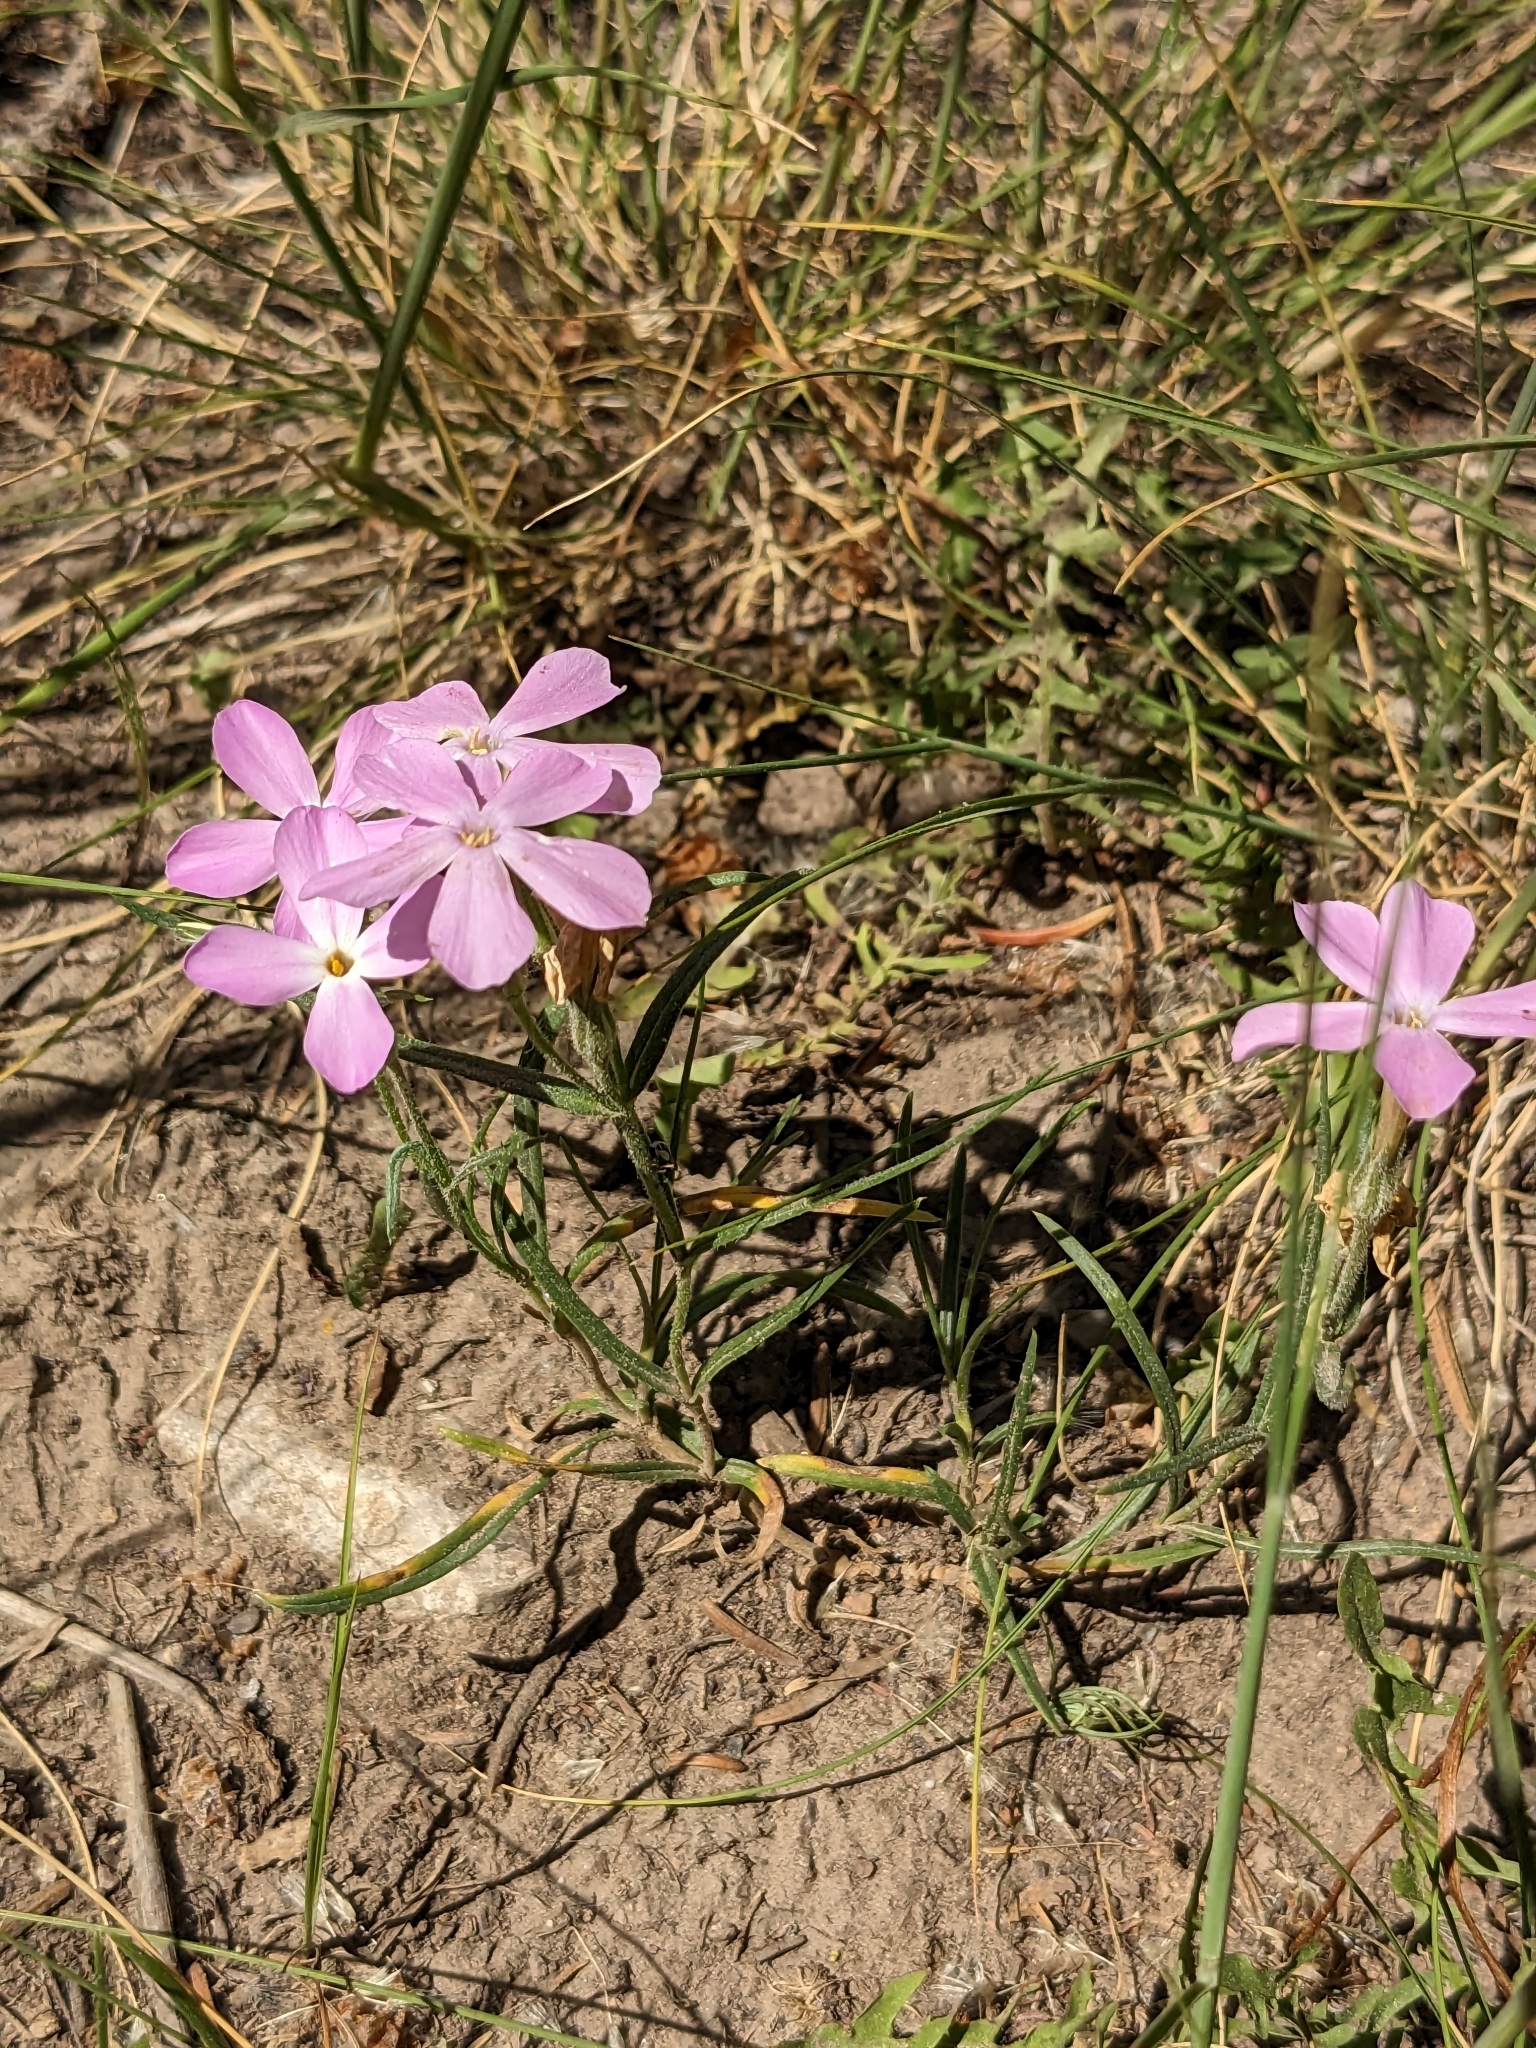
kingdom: Plantae
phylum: Tracheophyta
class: Magnoliopsida
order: Ericales
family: Polemoniaceae
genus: Phlox
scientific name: Phlox longifolia
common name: Longleaf phlox
